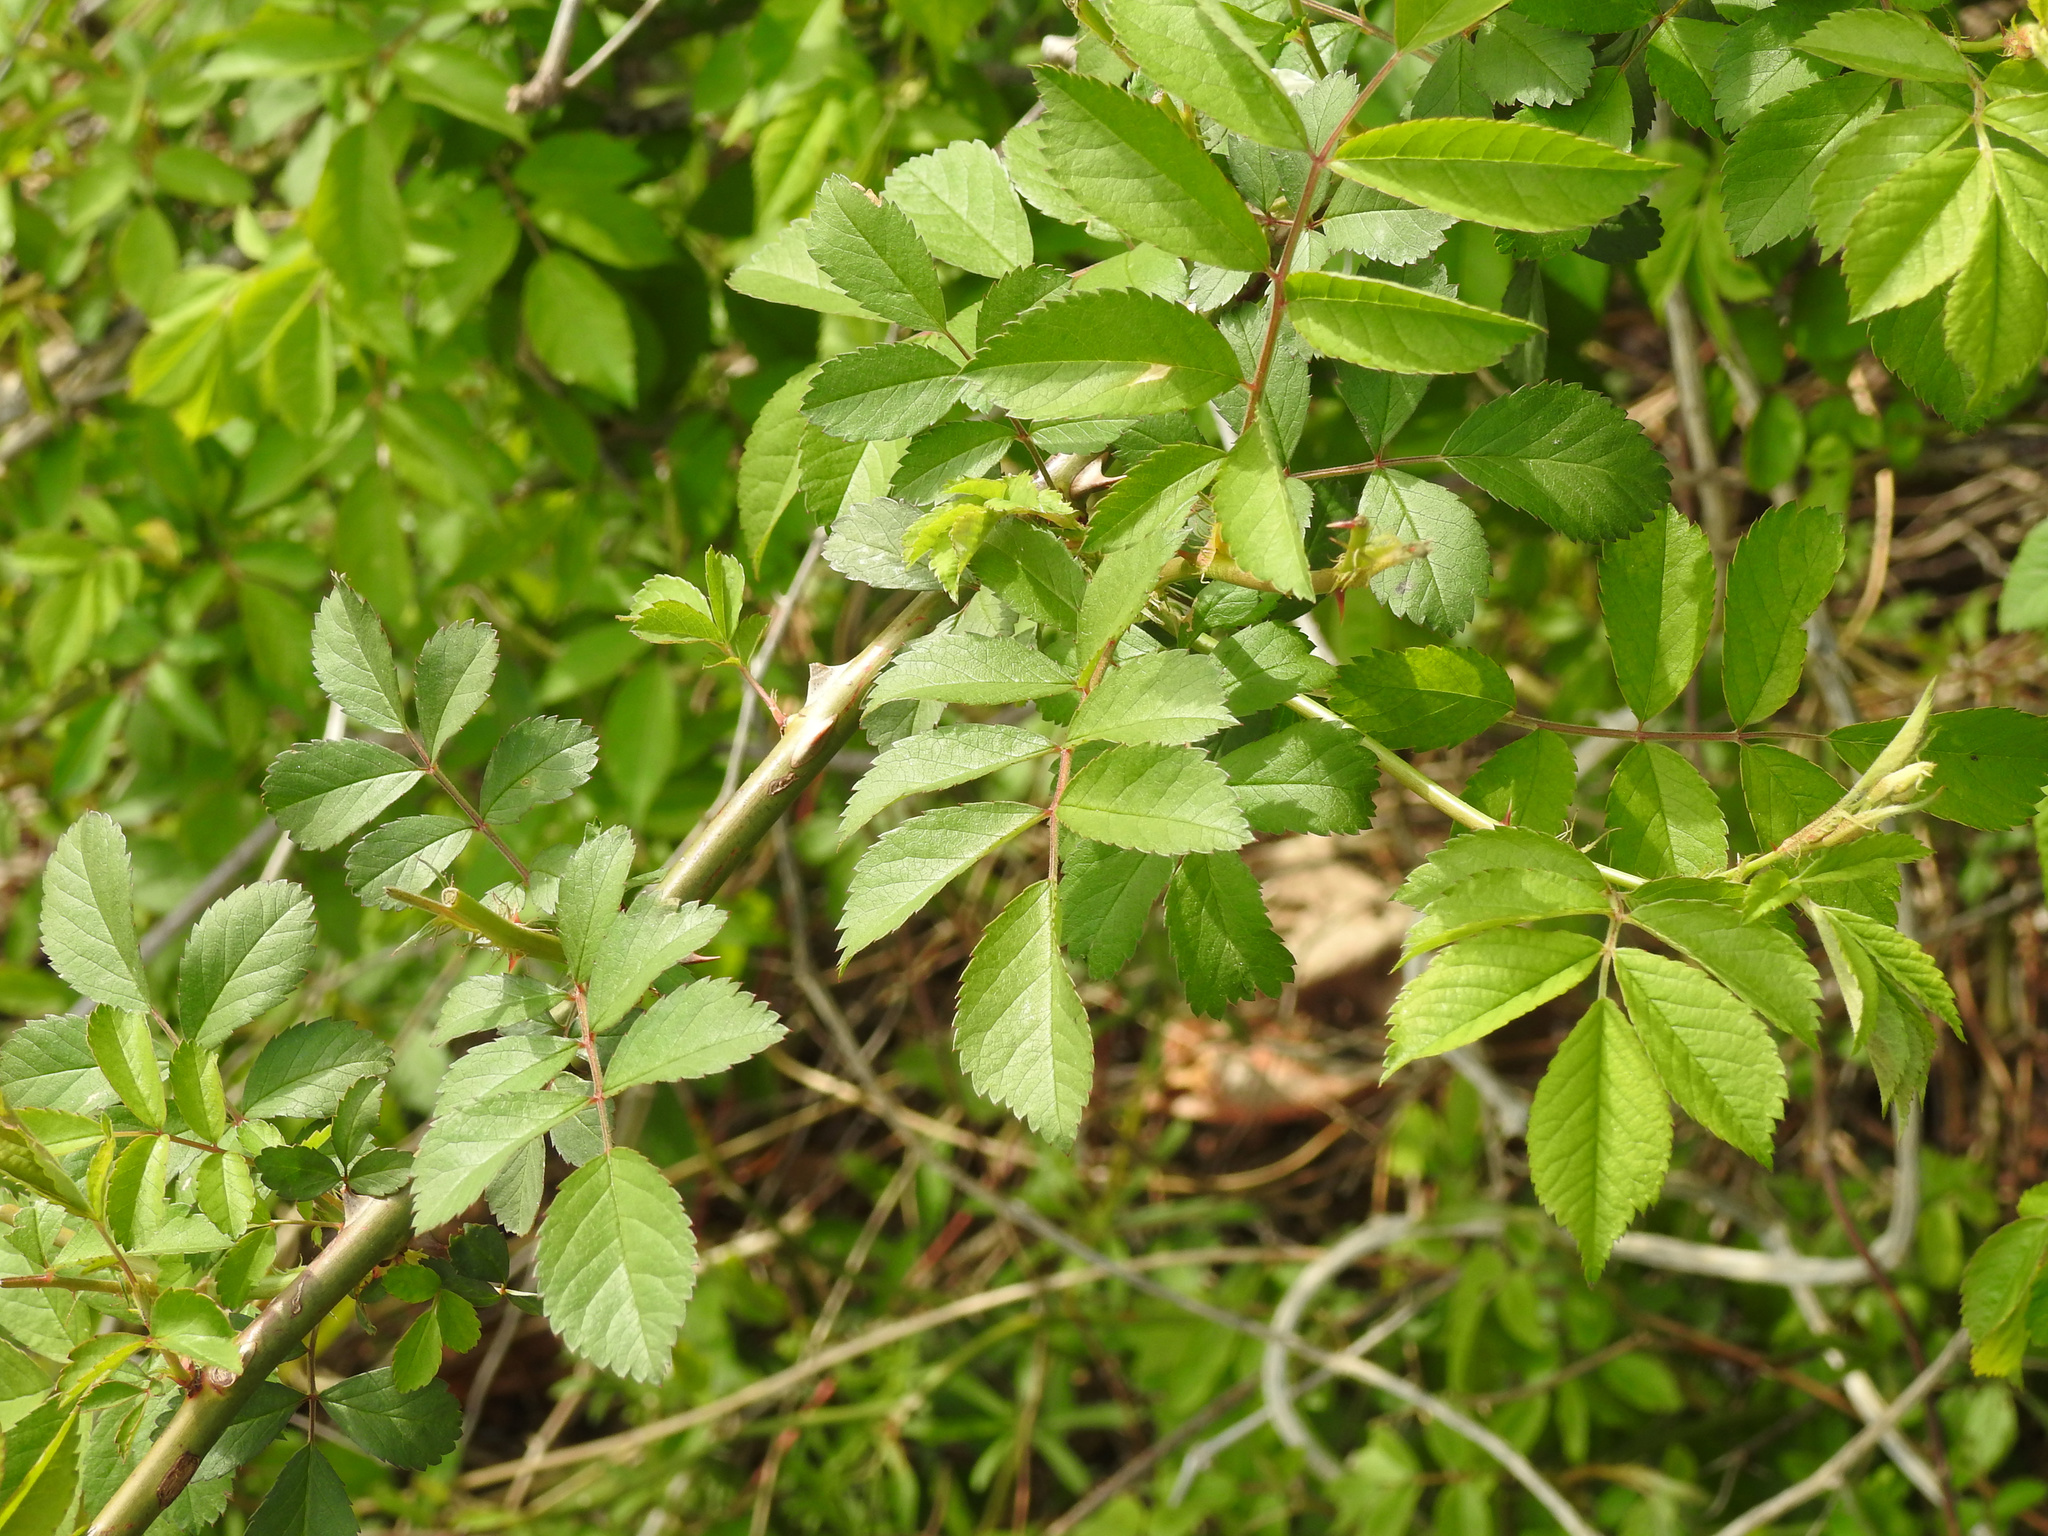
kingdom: Plantae
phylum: Tracheophyta
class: Magnoliopsida
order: Rosales
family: Rosaceae
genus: Rosa
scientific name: Rosa multiflora
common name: Multiflora rose
